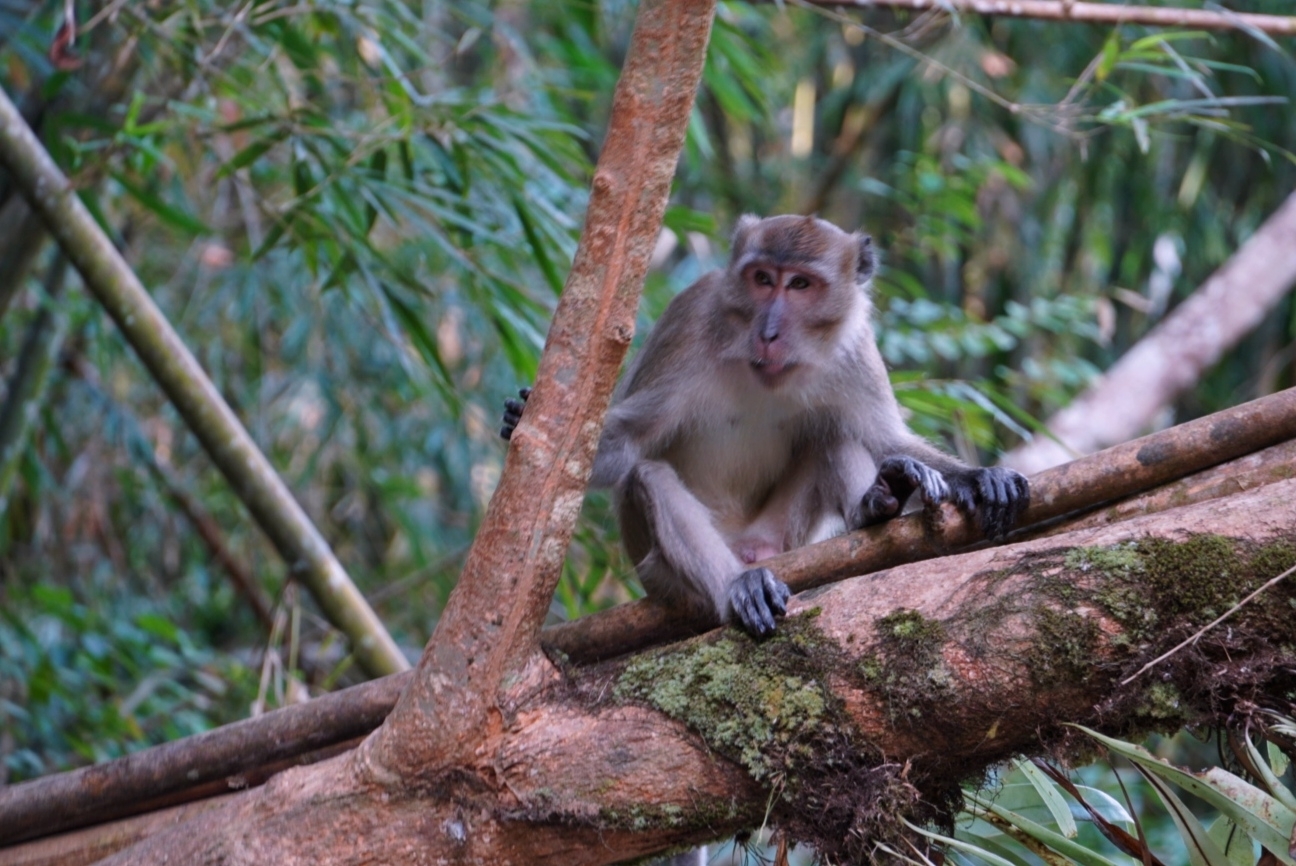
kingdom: Animalia
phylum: Chordata
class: Mammalia
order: Primates
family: Cercopithecidae
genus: Macaca
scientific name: Macaca fascicularis
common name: Crab-eating macaque
